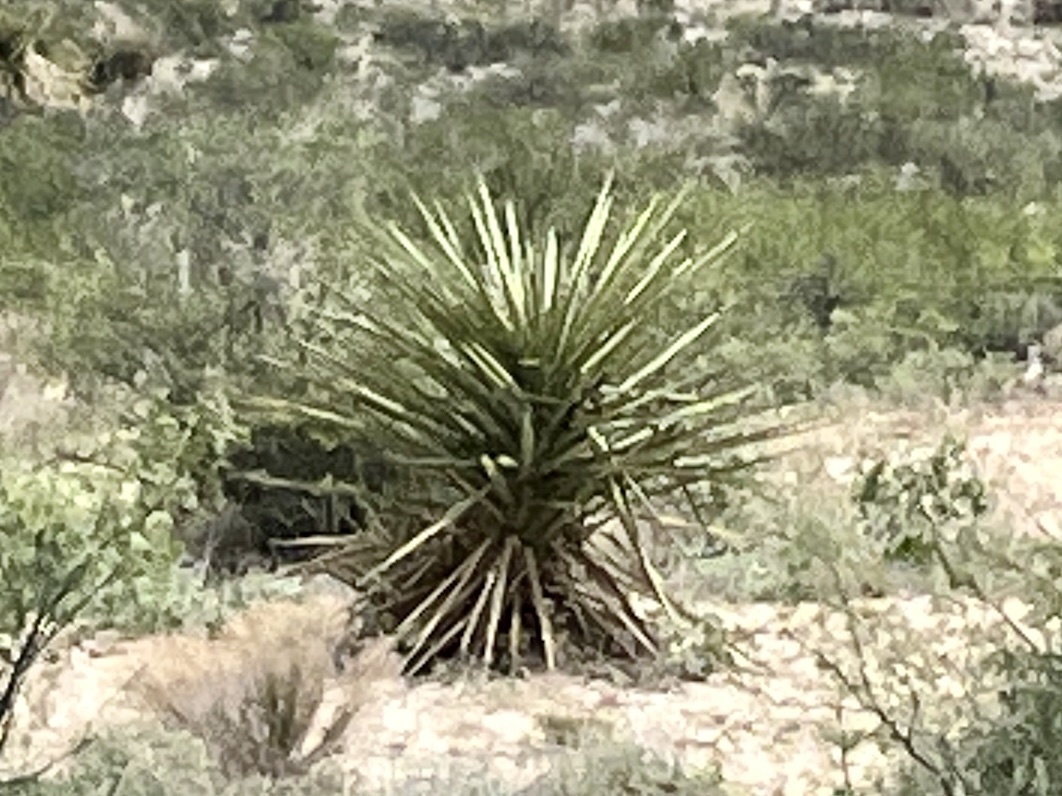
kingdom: Plantae
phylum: Tracheophyta
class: Liliopsida
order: Asparagales
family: Asparagaceae
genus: Yucca
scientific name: Yucca treculiana
